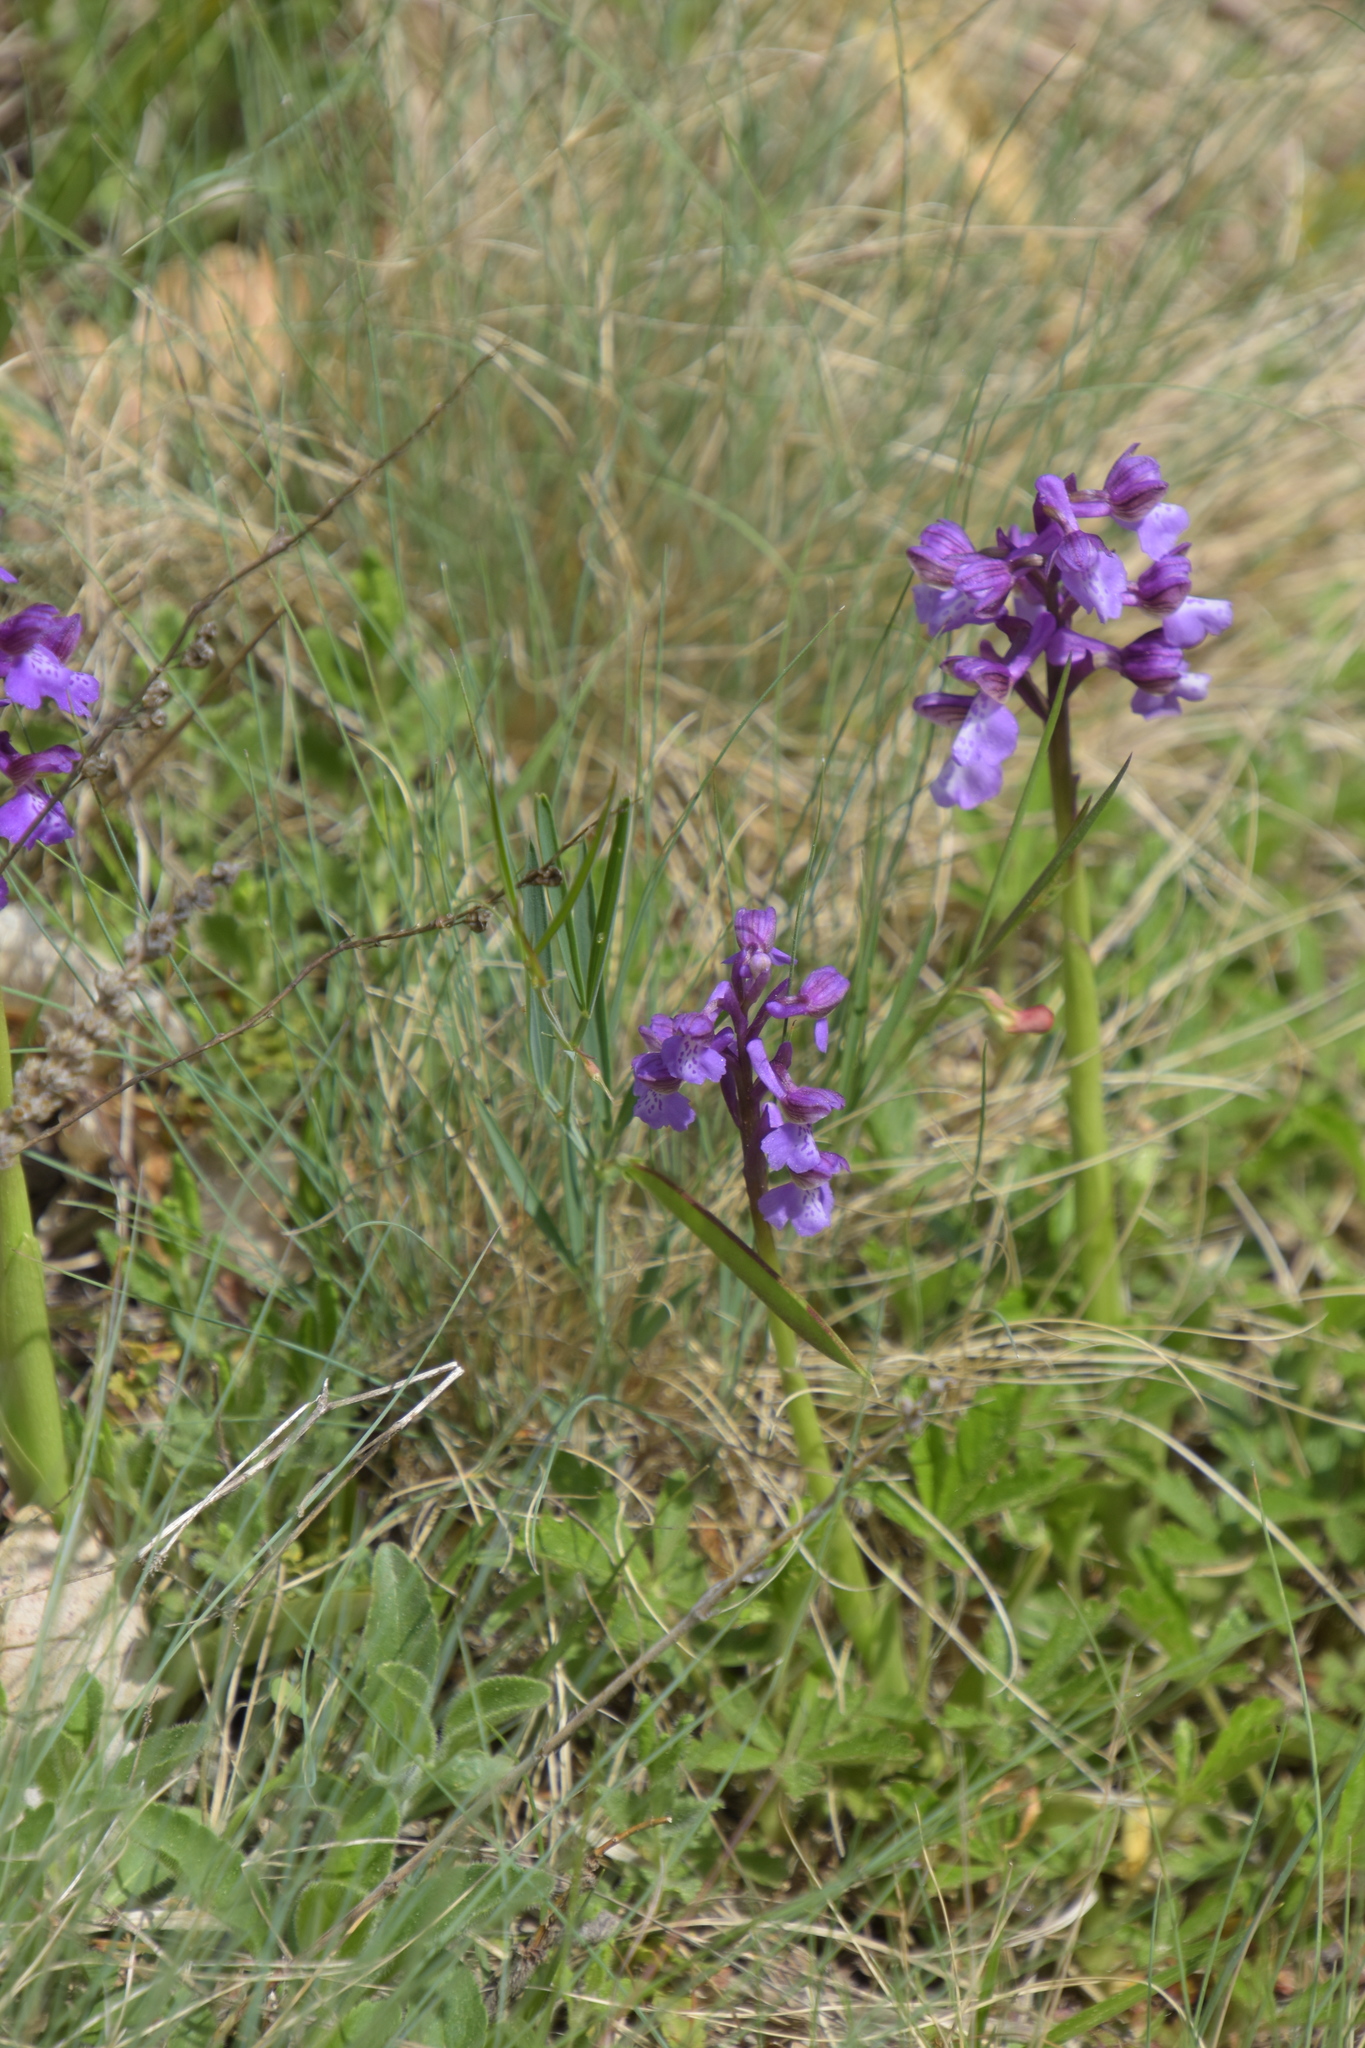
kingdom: Plantae
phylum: Tracheophyta
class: Liliopsida
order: Asparagales
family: Orchidaceae
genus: Anacamptis
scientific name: Anacamptis morio
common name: Green-winged orchid
